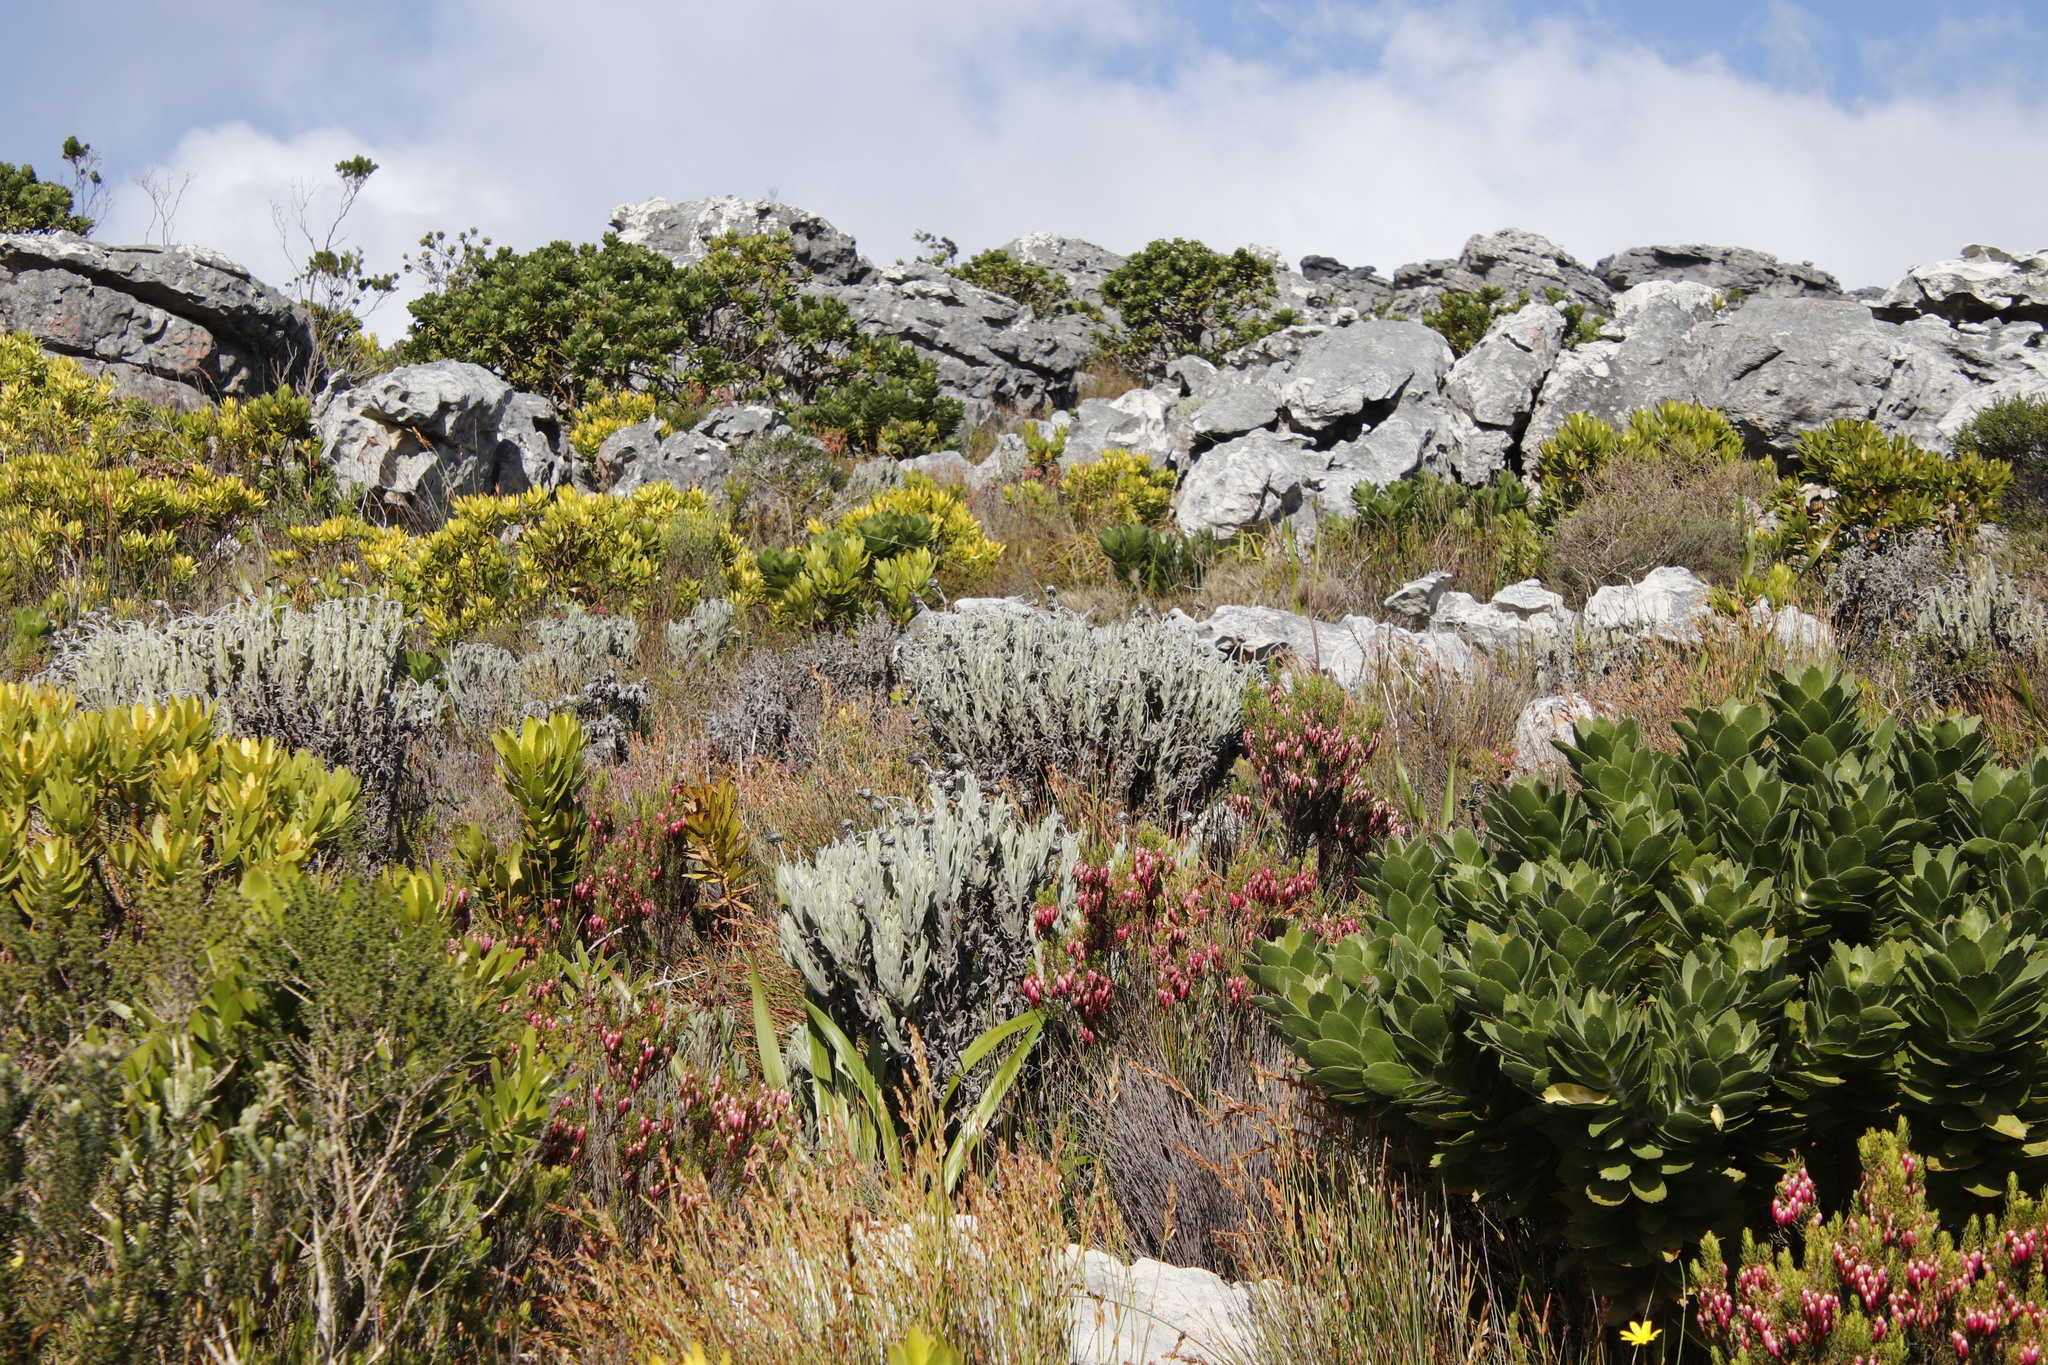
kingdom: Plantae
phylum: Tracheophyta
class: Magnoliopsida
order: Asterales
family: Asteraceae
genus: Syncarpha
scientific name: Syncarpha vestita
